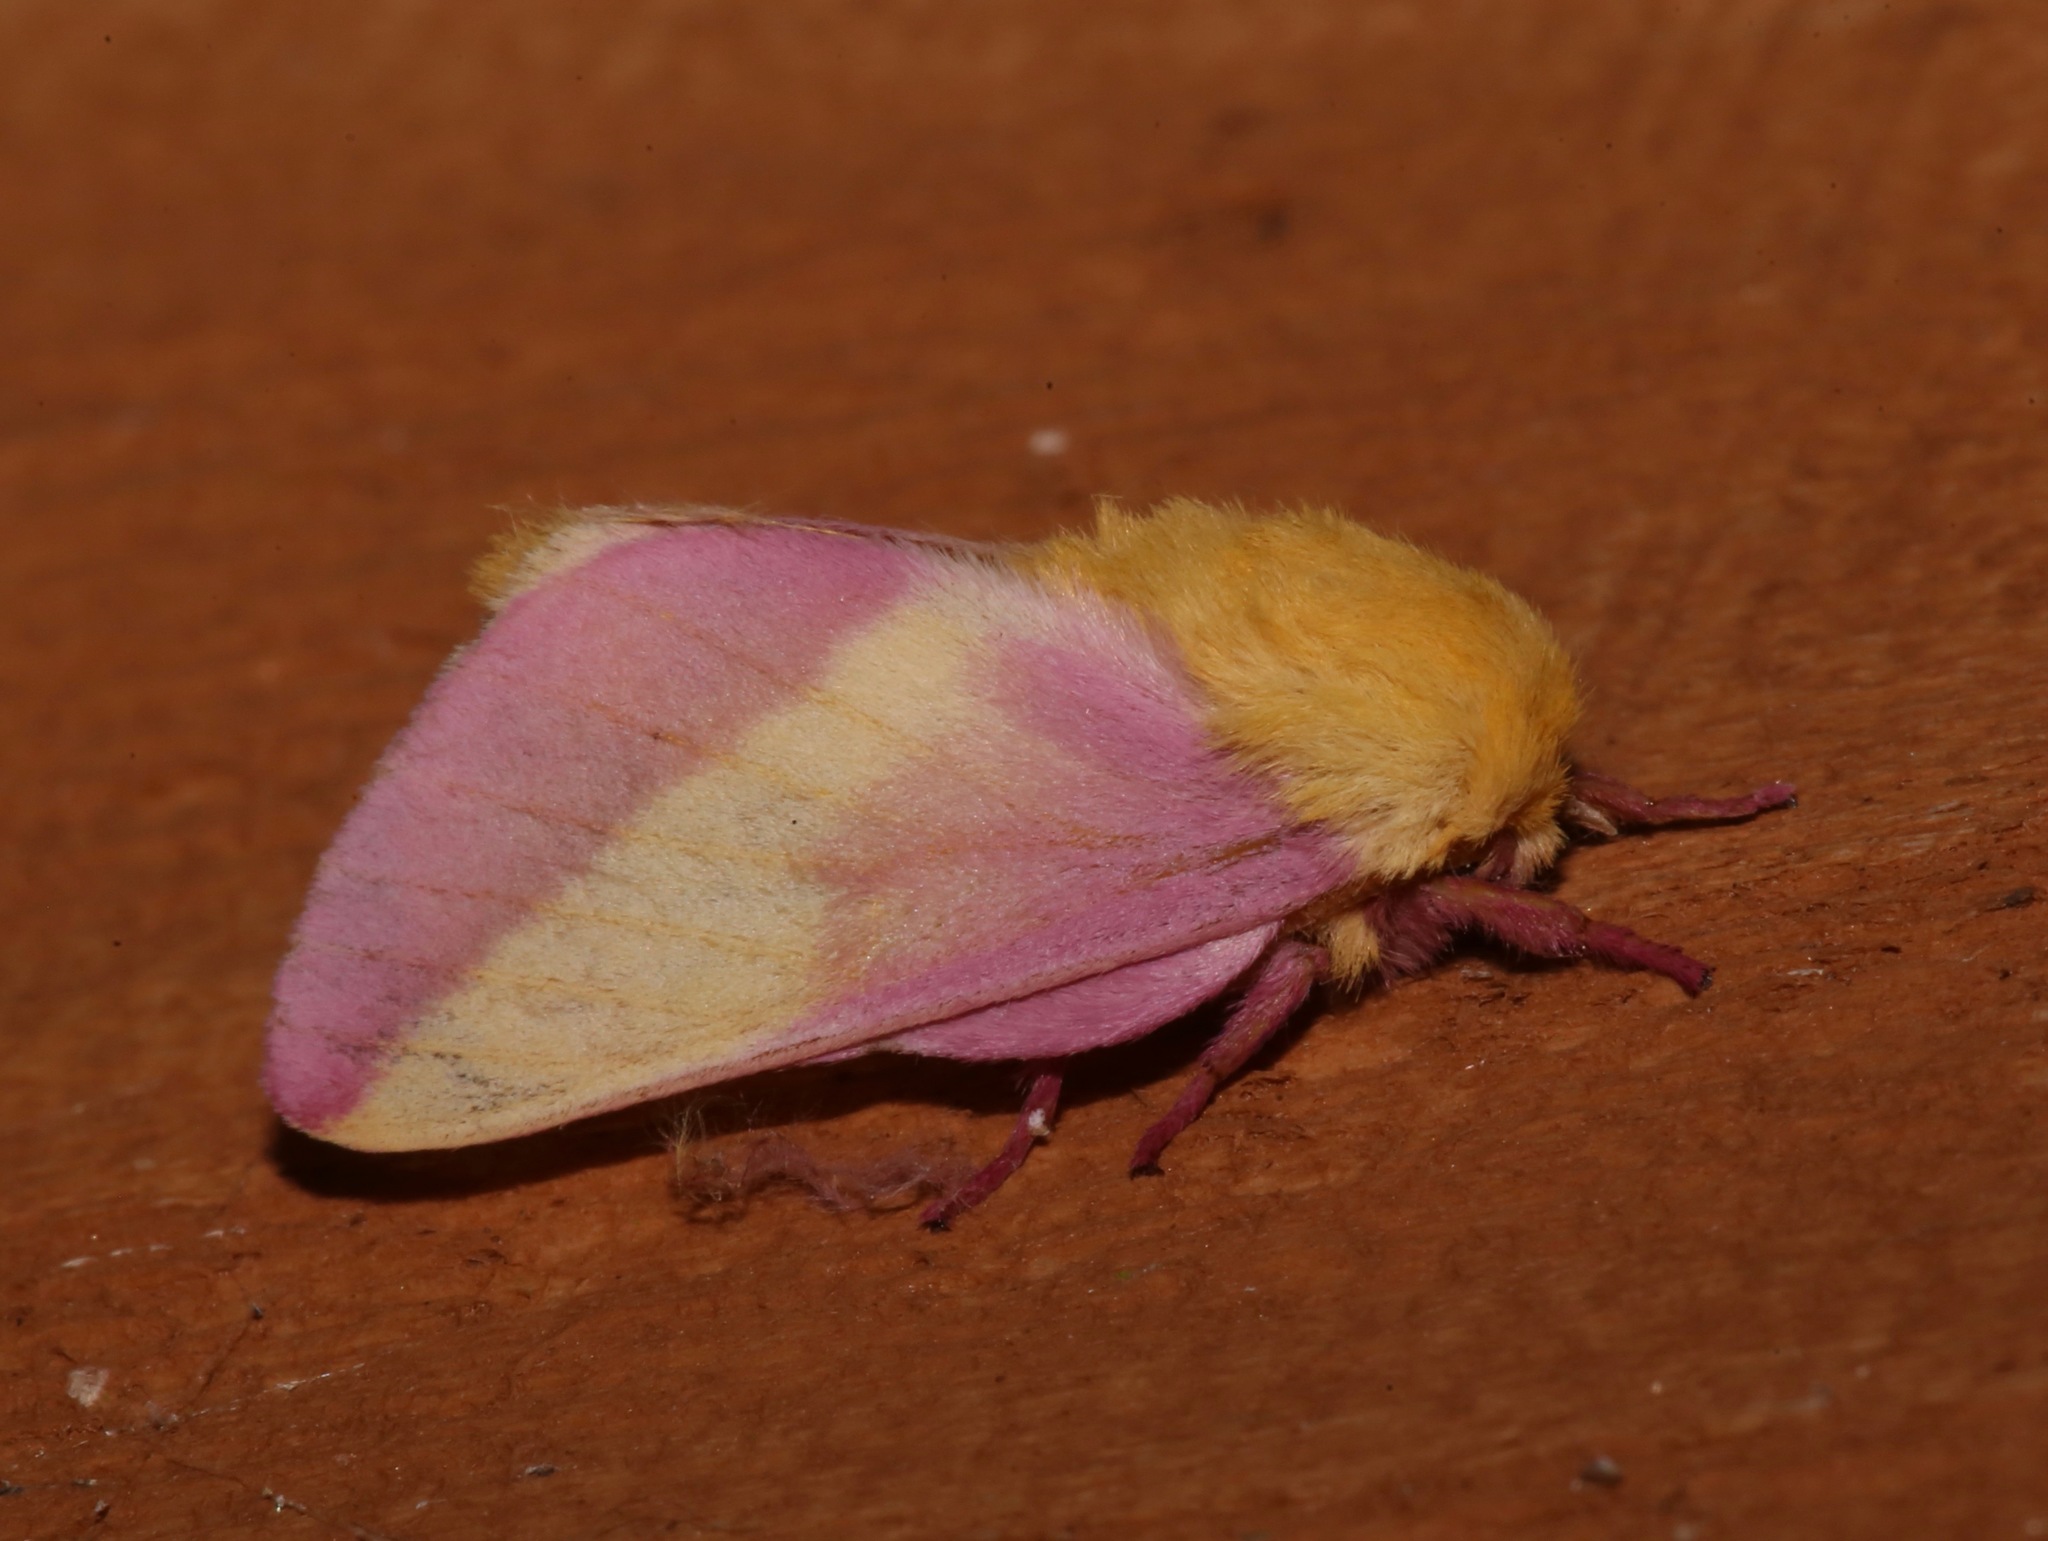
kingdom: Animalia
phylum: Arthropoda
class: Insecta
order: Lepidoptera
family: Saturniidae
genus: Dryocampa
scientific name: Dryocampa rubicunda
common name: Rosy maple moth
